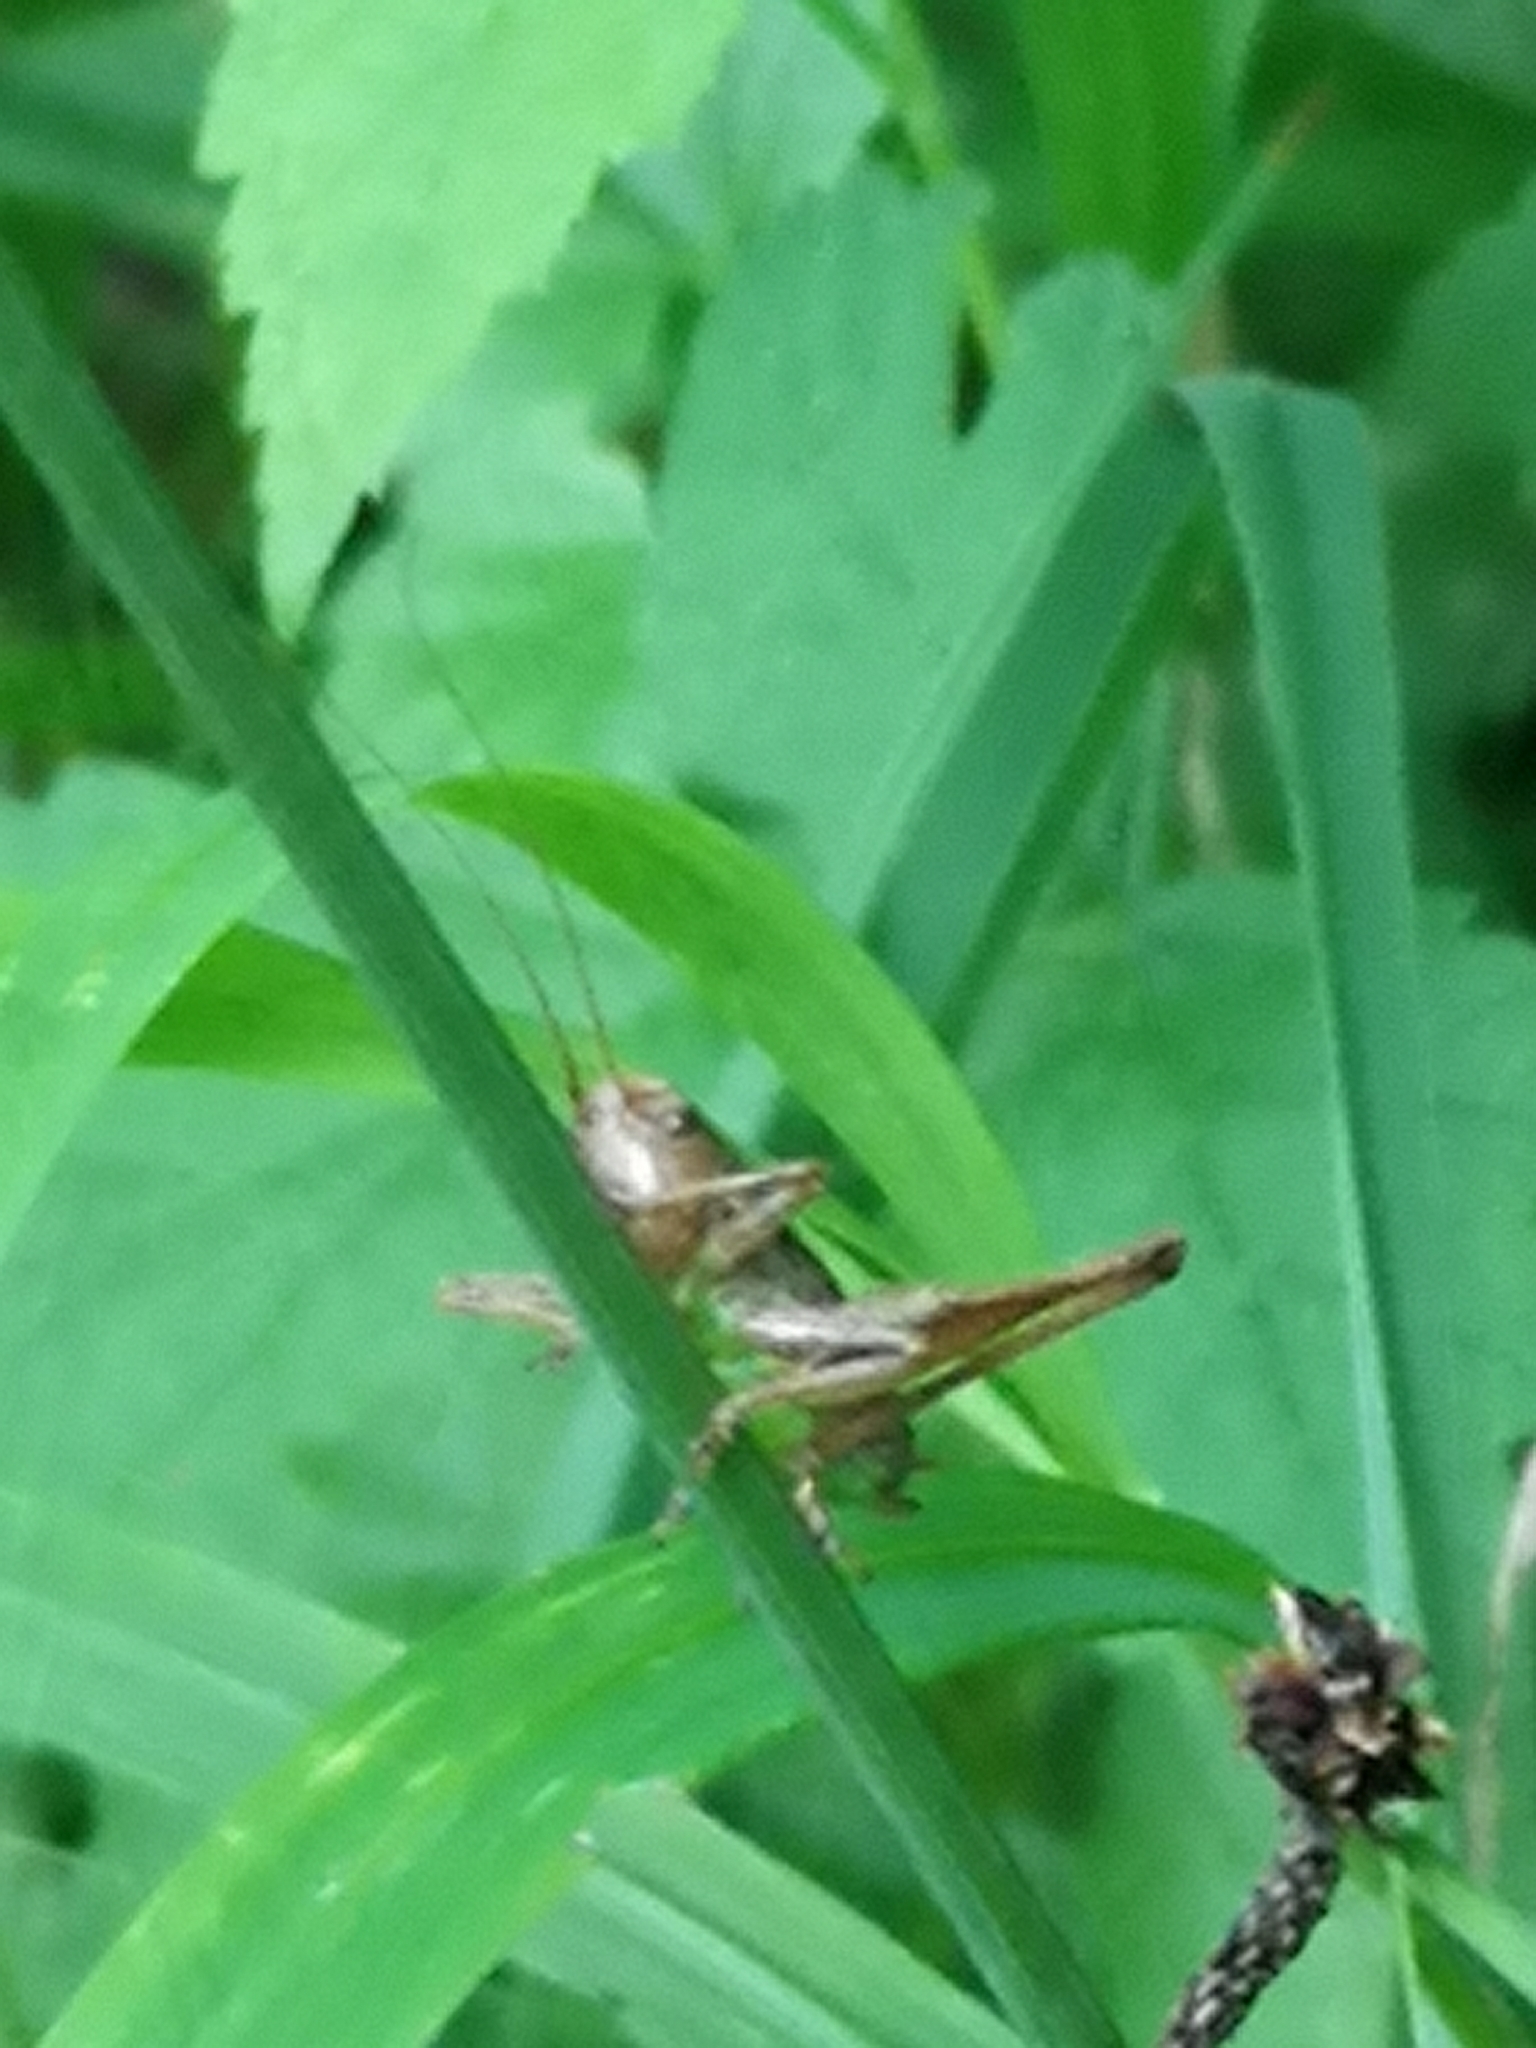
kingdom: Animalia
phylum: Arthropoda
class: Insecta
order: Orthoptera
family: Tettigoniidae
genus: Pholidoptera
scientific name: Pholidoptera griseoaptera
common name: Dark bush-cricket
